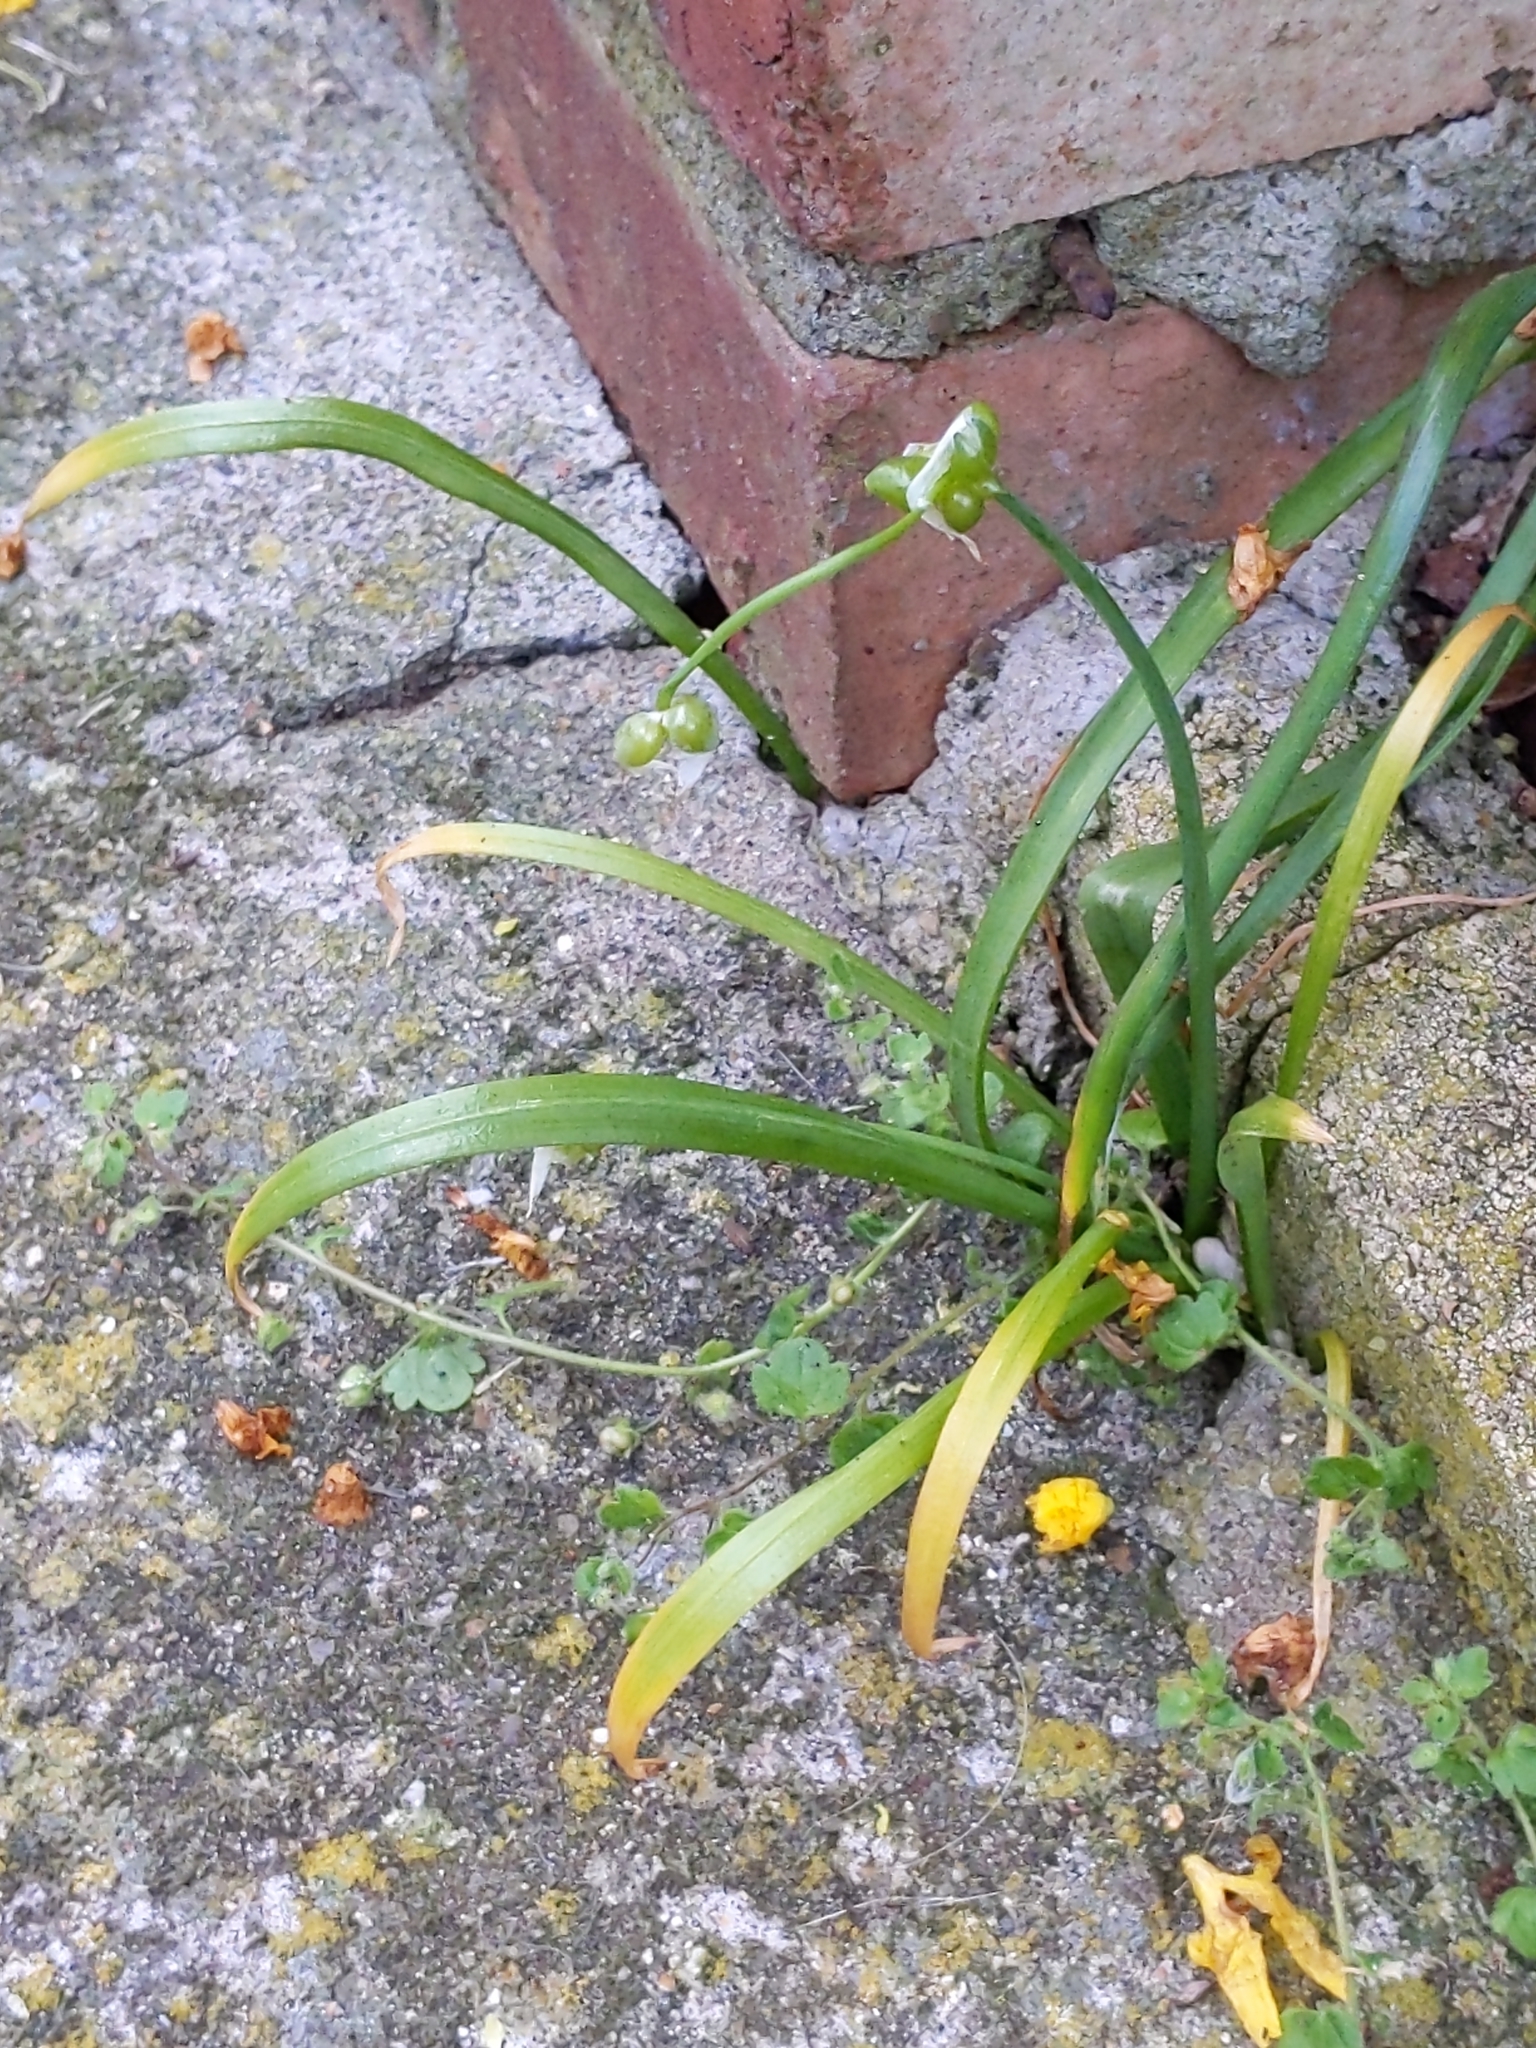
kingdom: Plantae
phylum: Tracheophyta
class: Liliopsida
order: Asparagales
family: Amaryllidaceae
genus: Allium
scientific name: Allium paradoxum
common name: Few-flowered garlic
